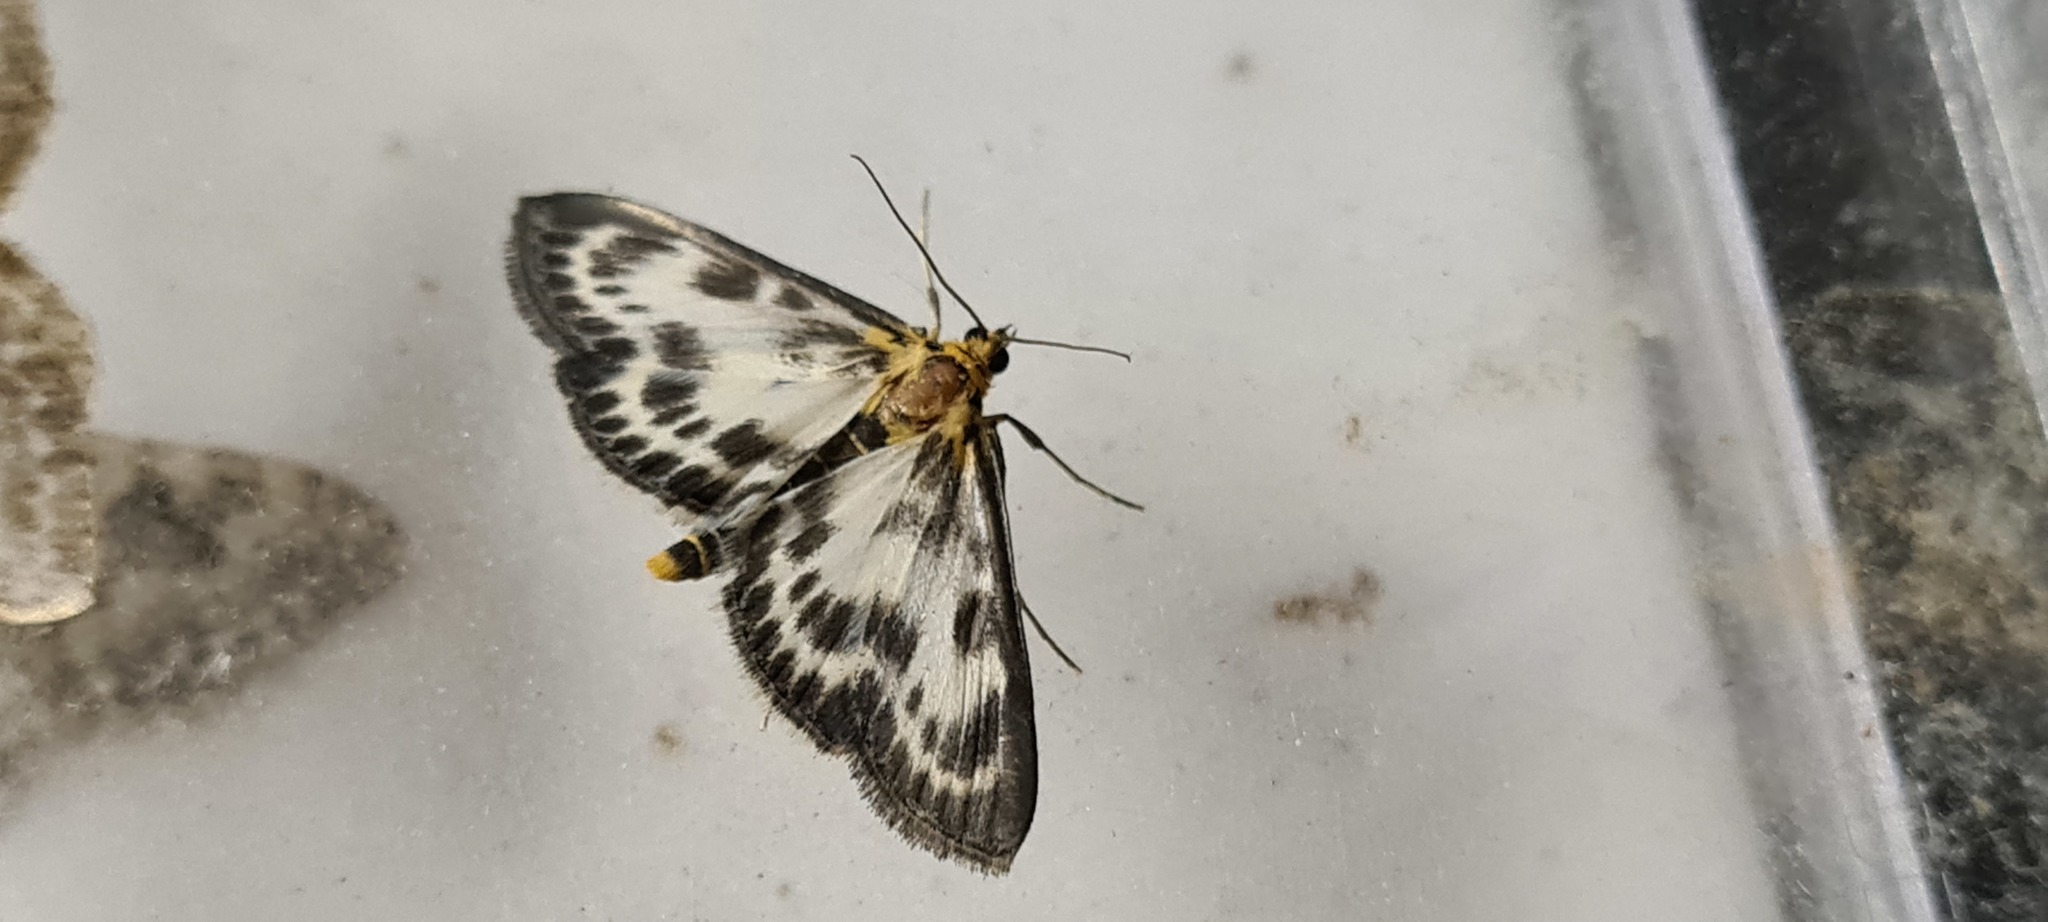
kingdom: Animalia
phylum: Arthropoda
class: Insecta
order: Lepidoptera
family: Crambidae
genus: Anania
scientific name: Anania hortulata
